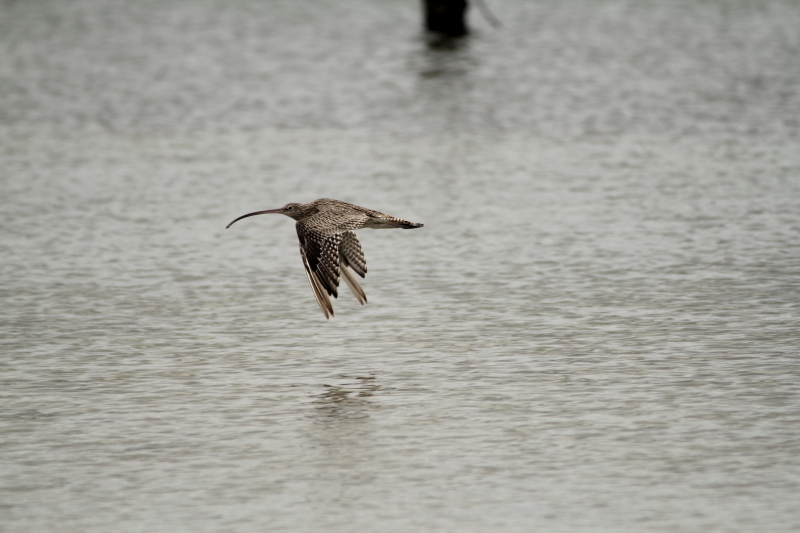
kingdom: Animalia
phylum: Chordata
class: Aves
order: Charadriiformes
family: Scolopacidae
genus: Numenius
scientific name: Numenius madagascariensis
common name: Far eastern curlew
